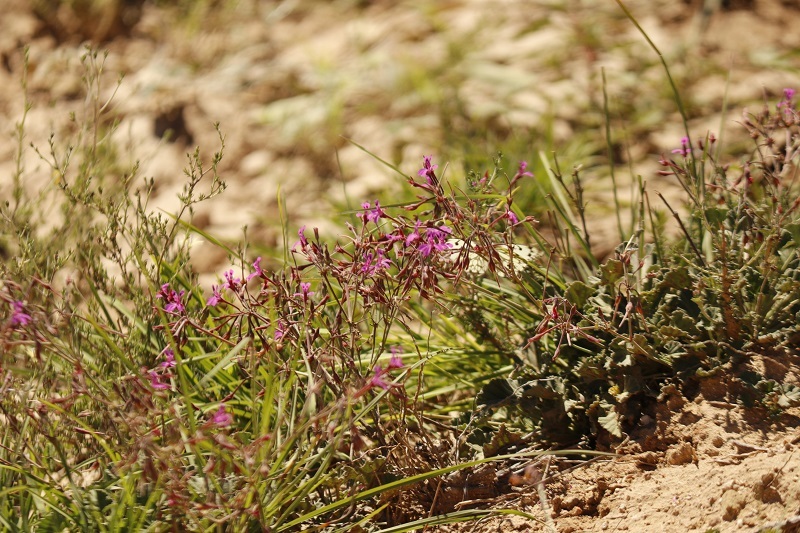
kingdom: Plantae
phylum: Tracheophyta
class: Magnoliopsida
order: Geraniales
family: Geraniaceae
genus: Pelargonium
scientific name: Pelargonium reniforme
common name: Kidney-leaf pelargonium
